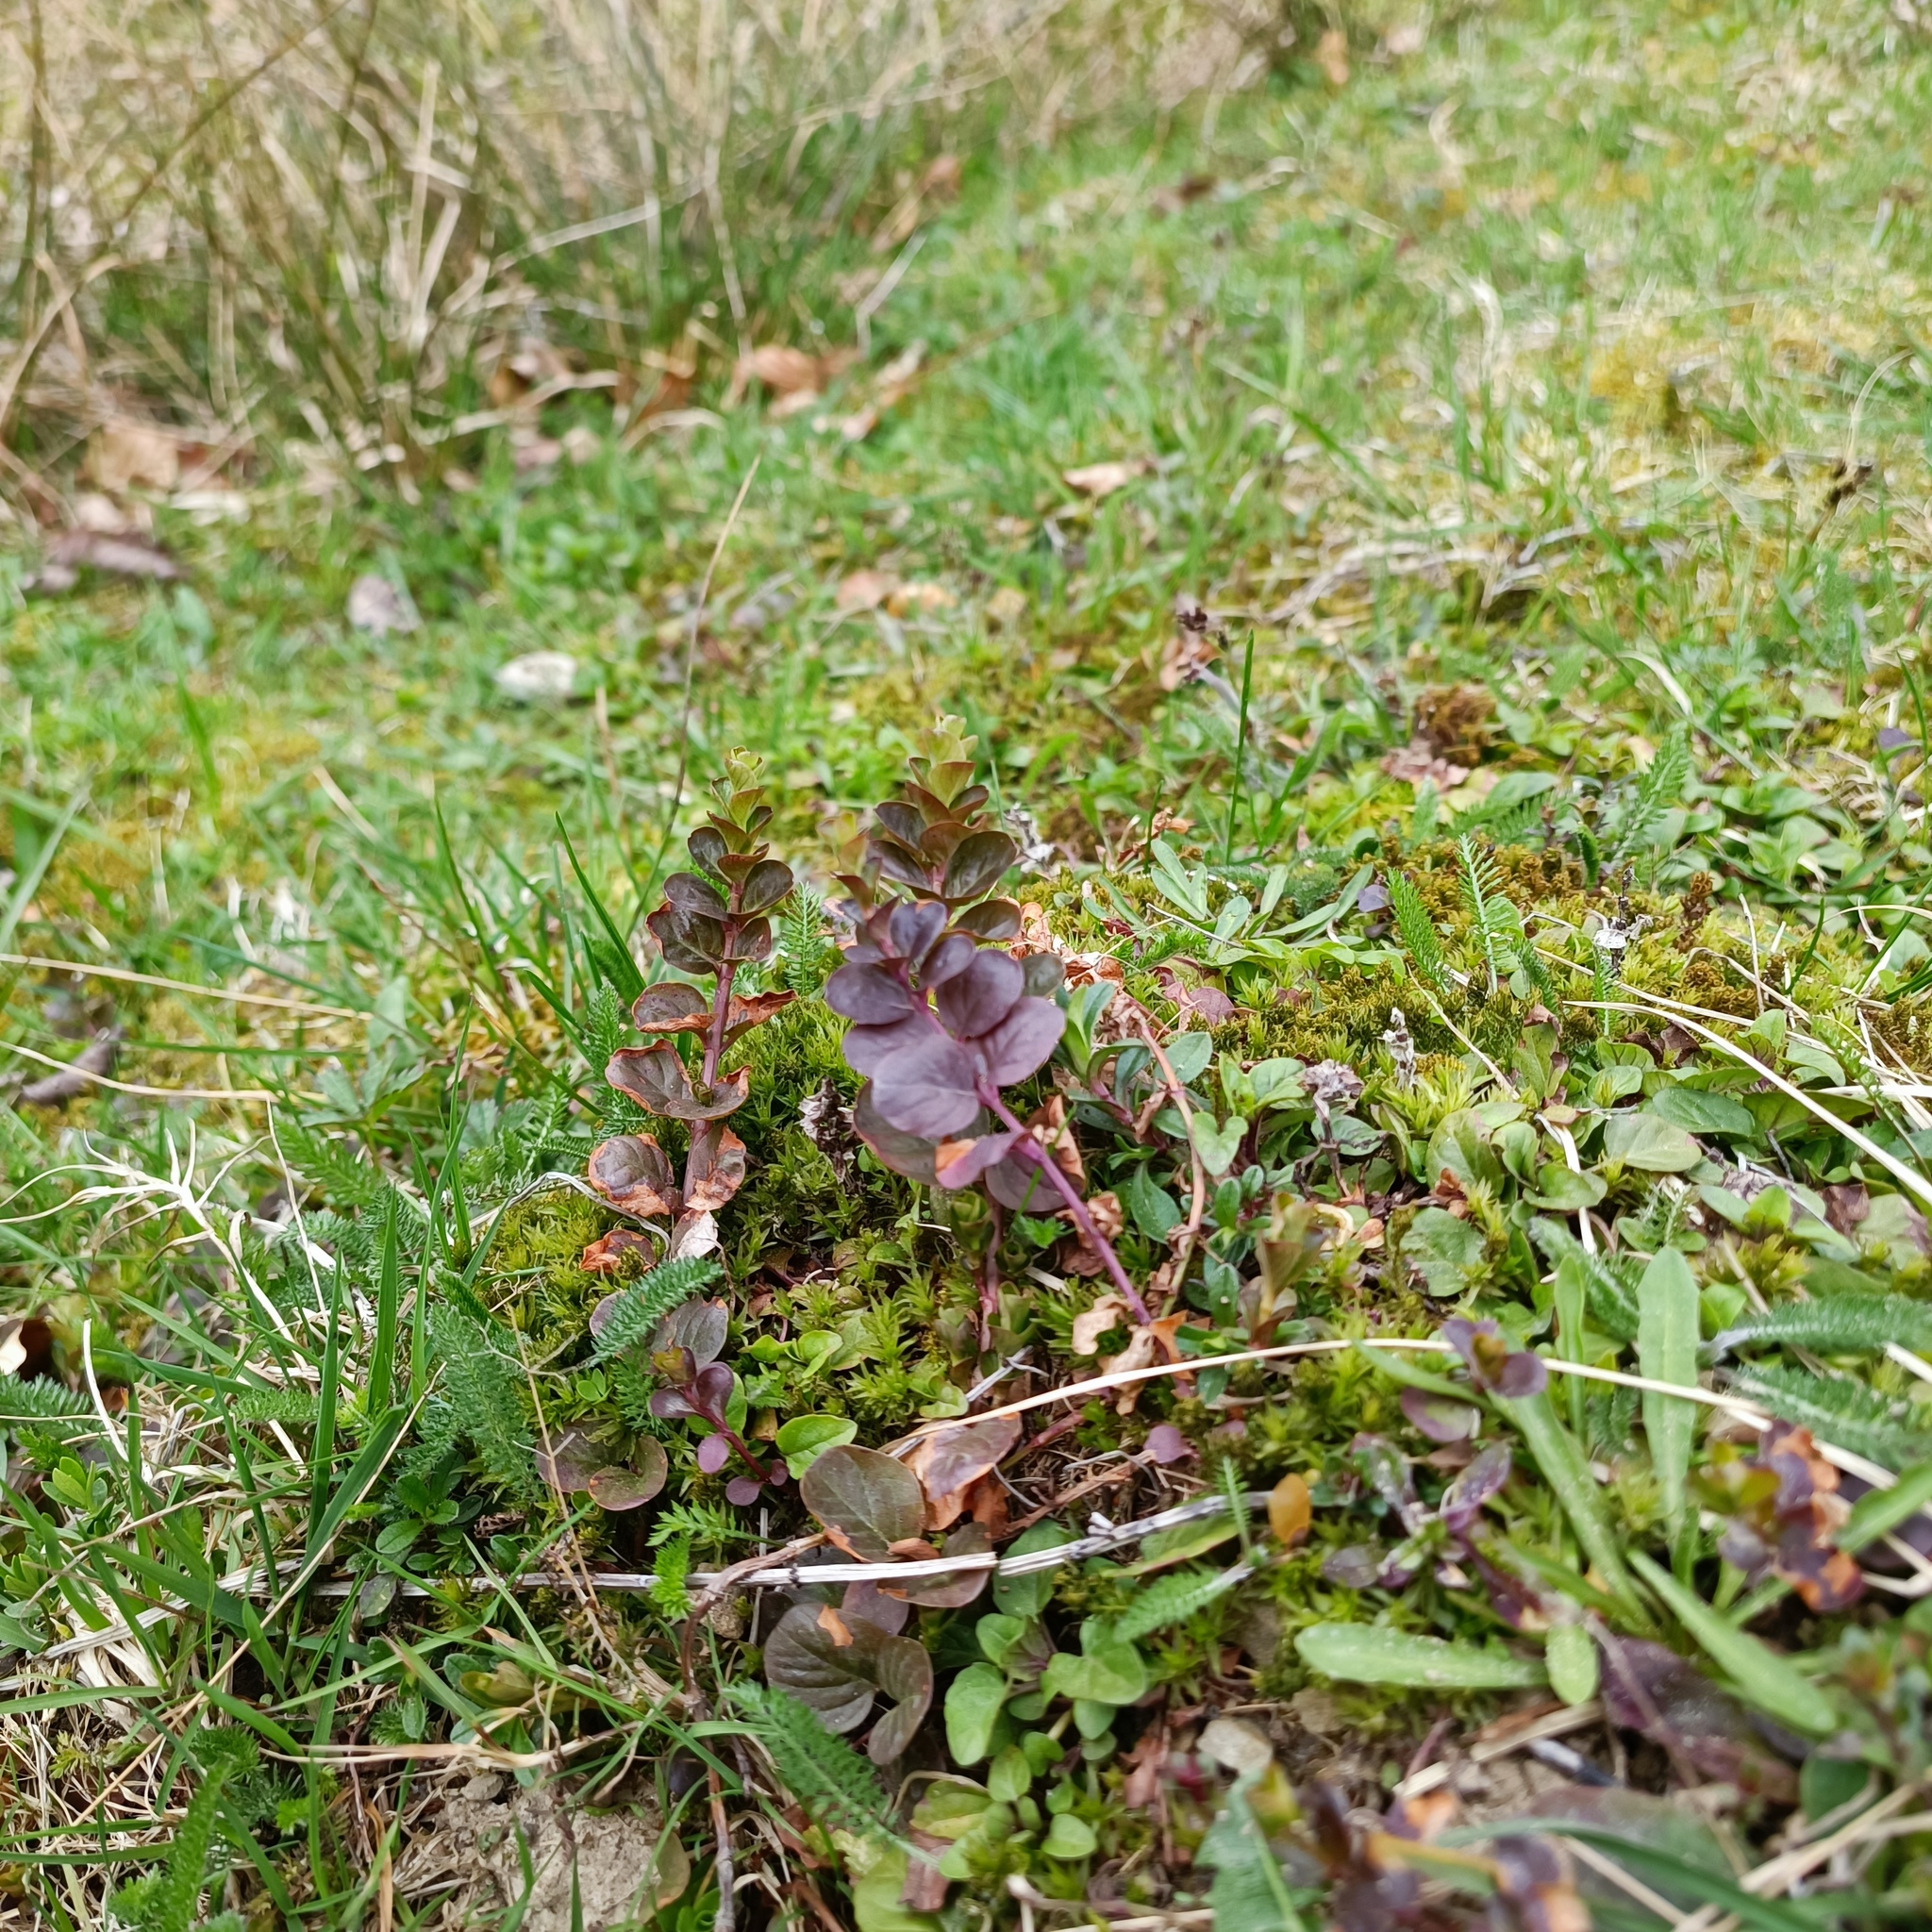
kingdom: Plantae
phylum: Tracheophyta
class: Magnoliopsida
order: Ericales
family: Primulaceae
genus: Lysimachia
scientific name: Lysimachia nummularia
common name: Moneywort
